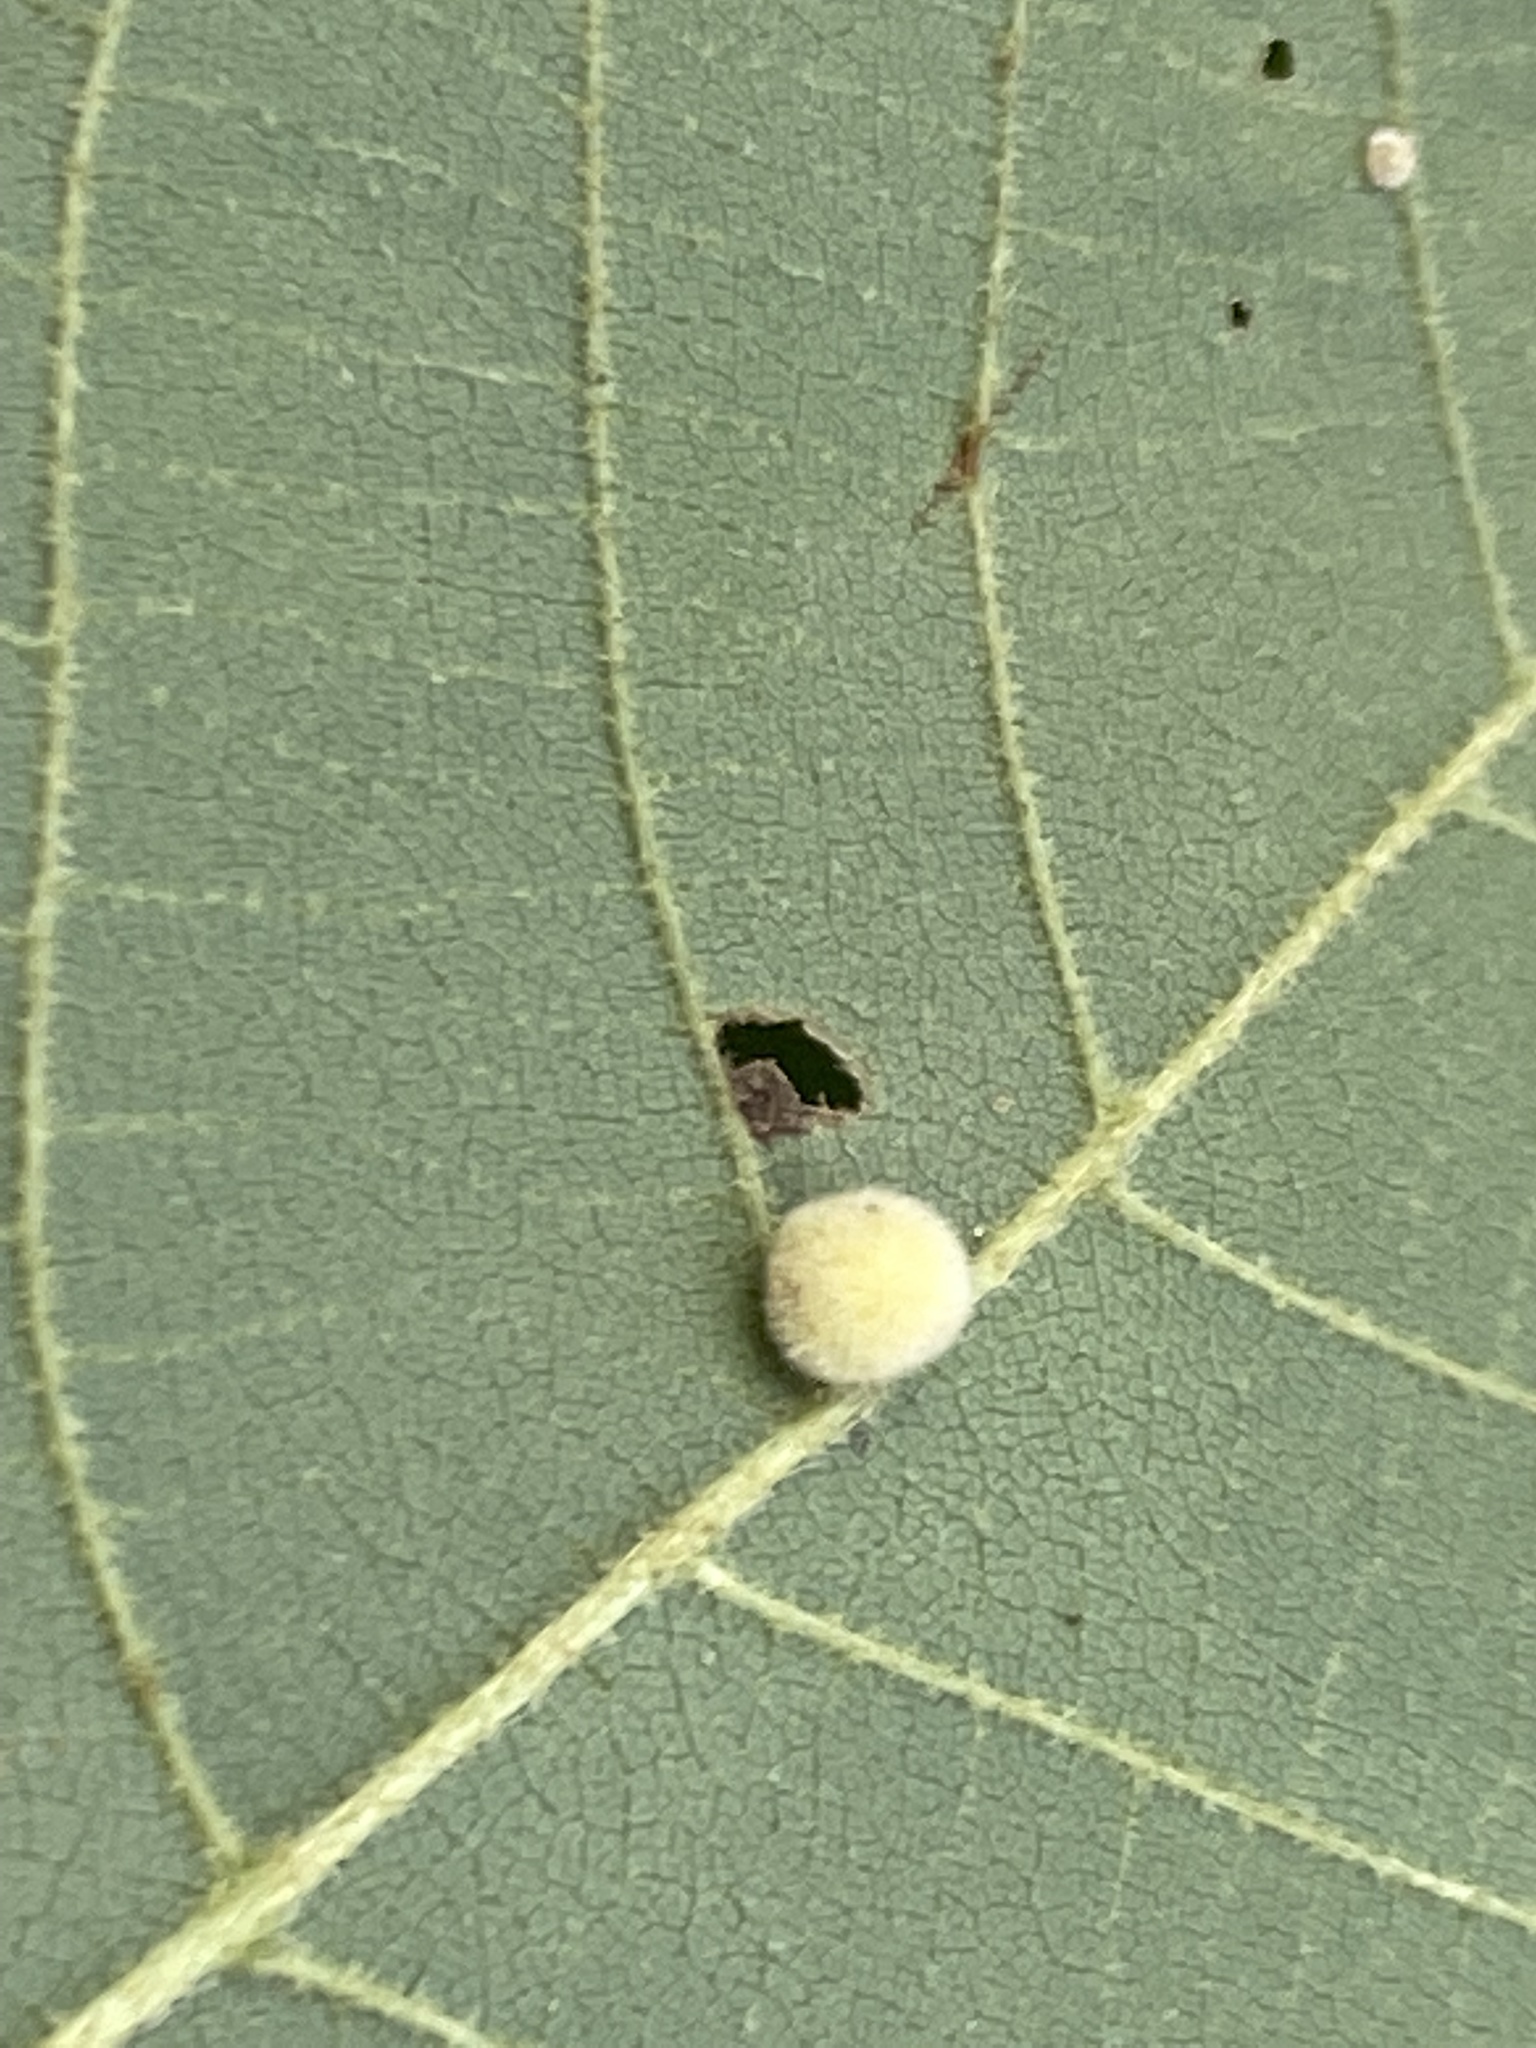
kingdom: Animalia
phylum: Arthropoda
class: Insecta
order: Diptera
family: Cecidomyiidae
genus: Caryomyia
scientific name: Caryomyia spherica
